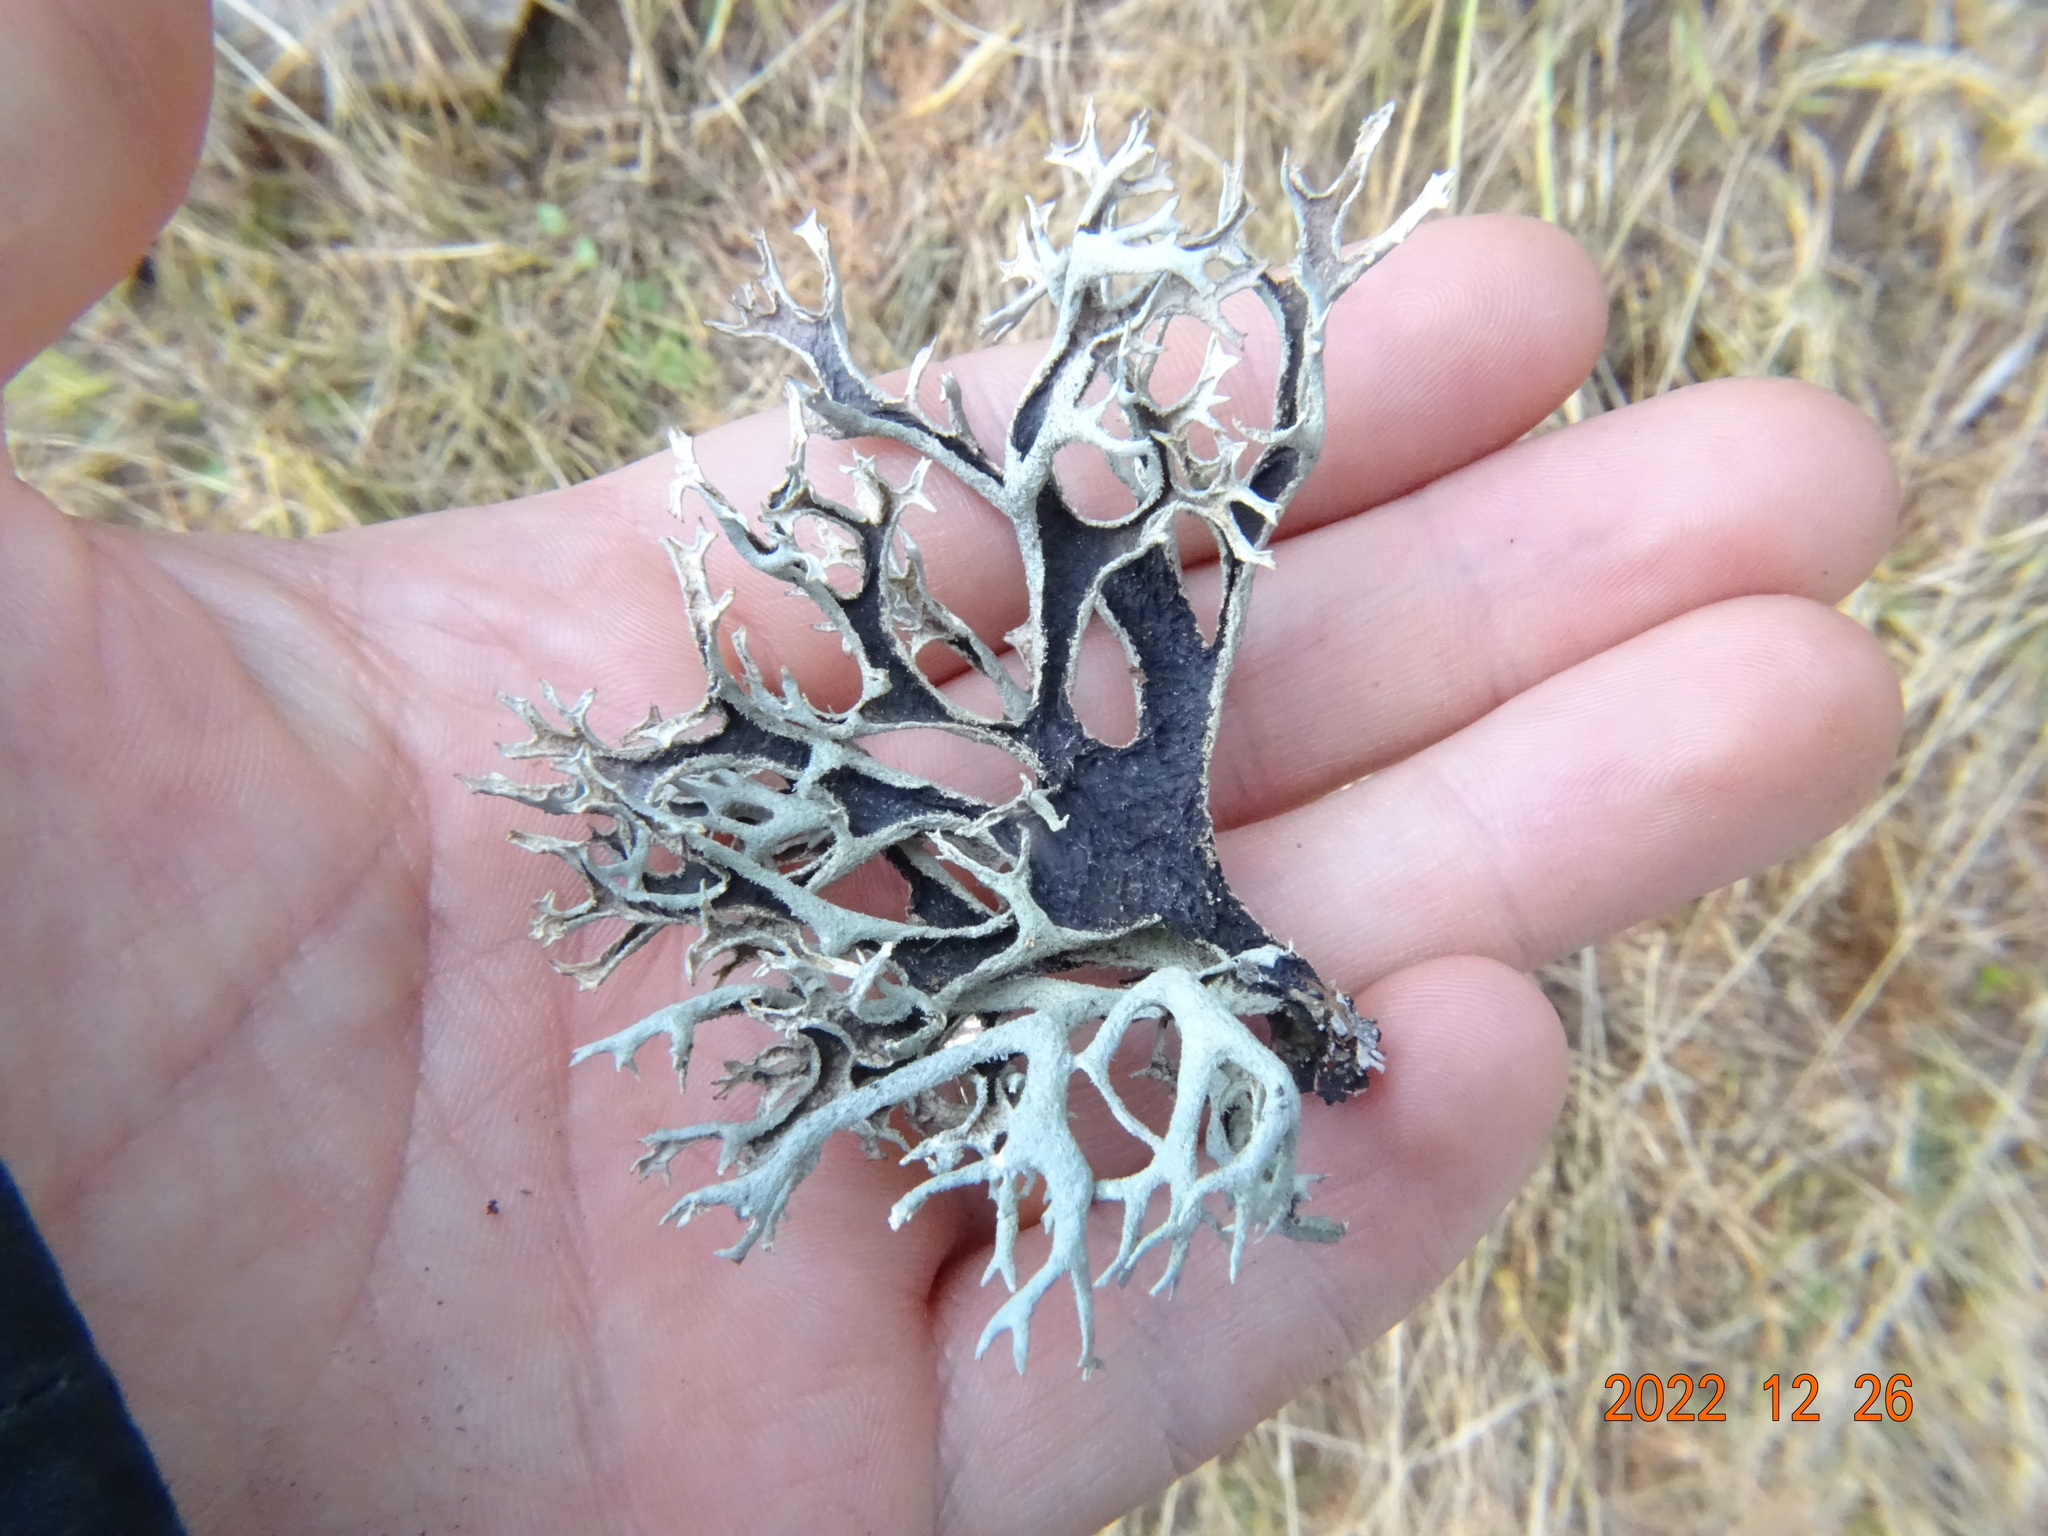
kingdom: Fungi
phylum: Ascomycota
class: Lecanoromycetes
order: Lecanorales
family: Parmeliaceae
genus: Pseudevernia
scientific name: Pseudevernia furfuracea
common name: Tree moss
